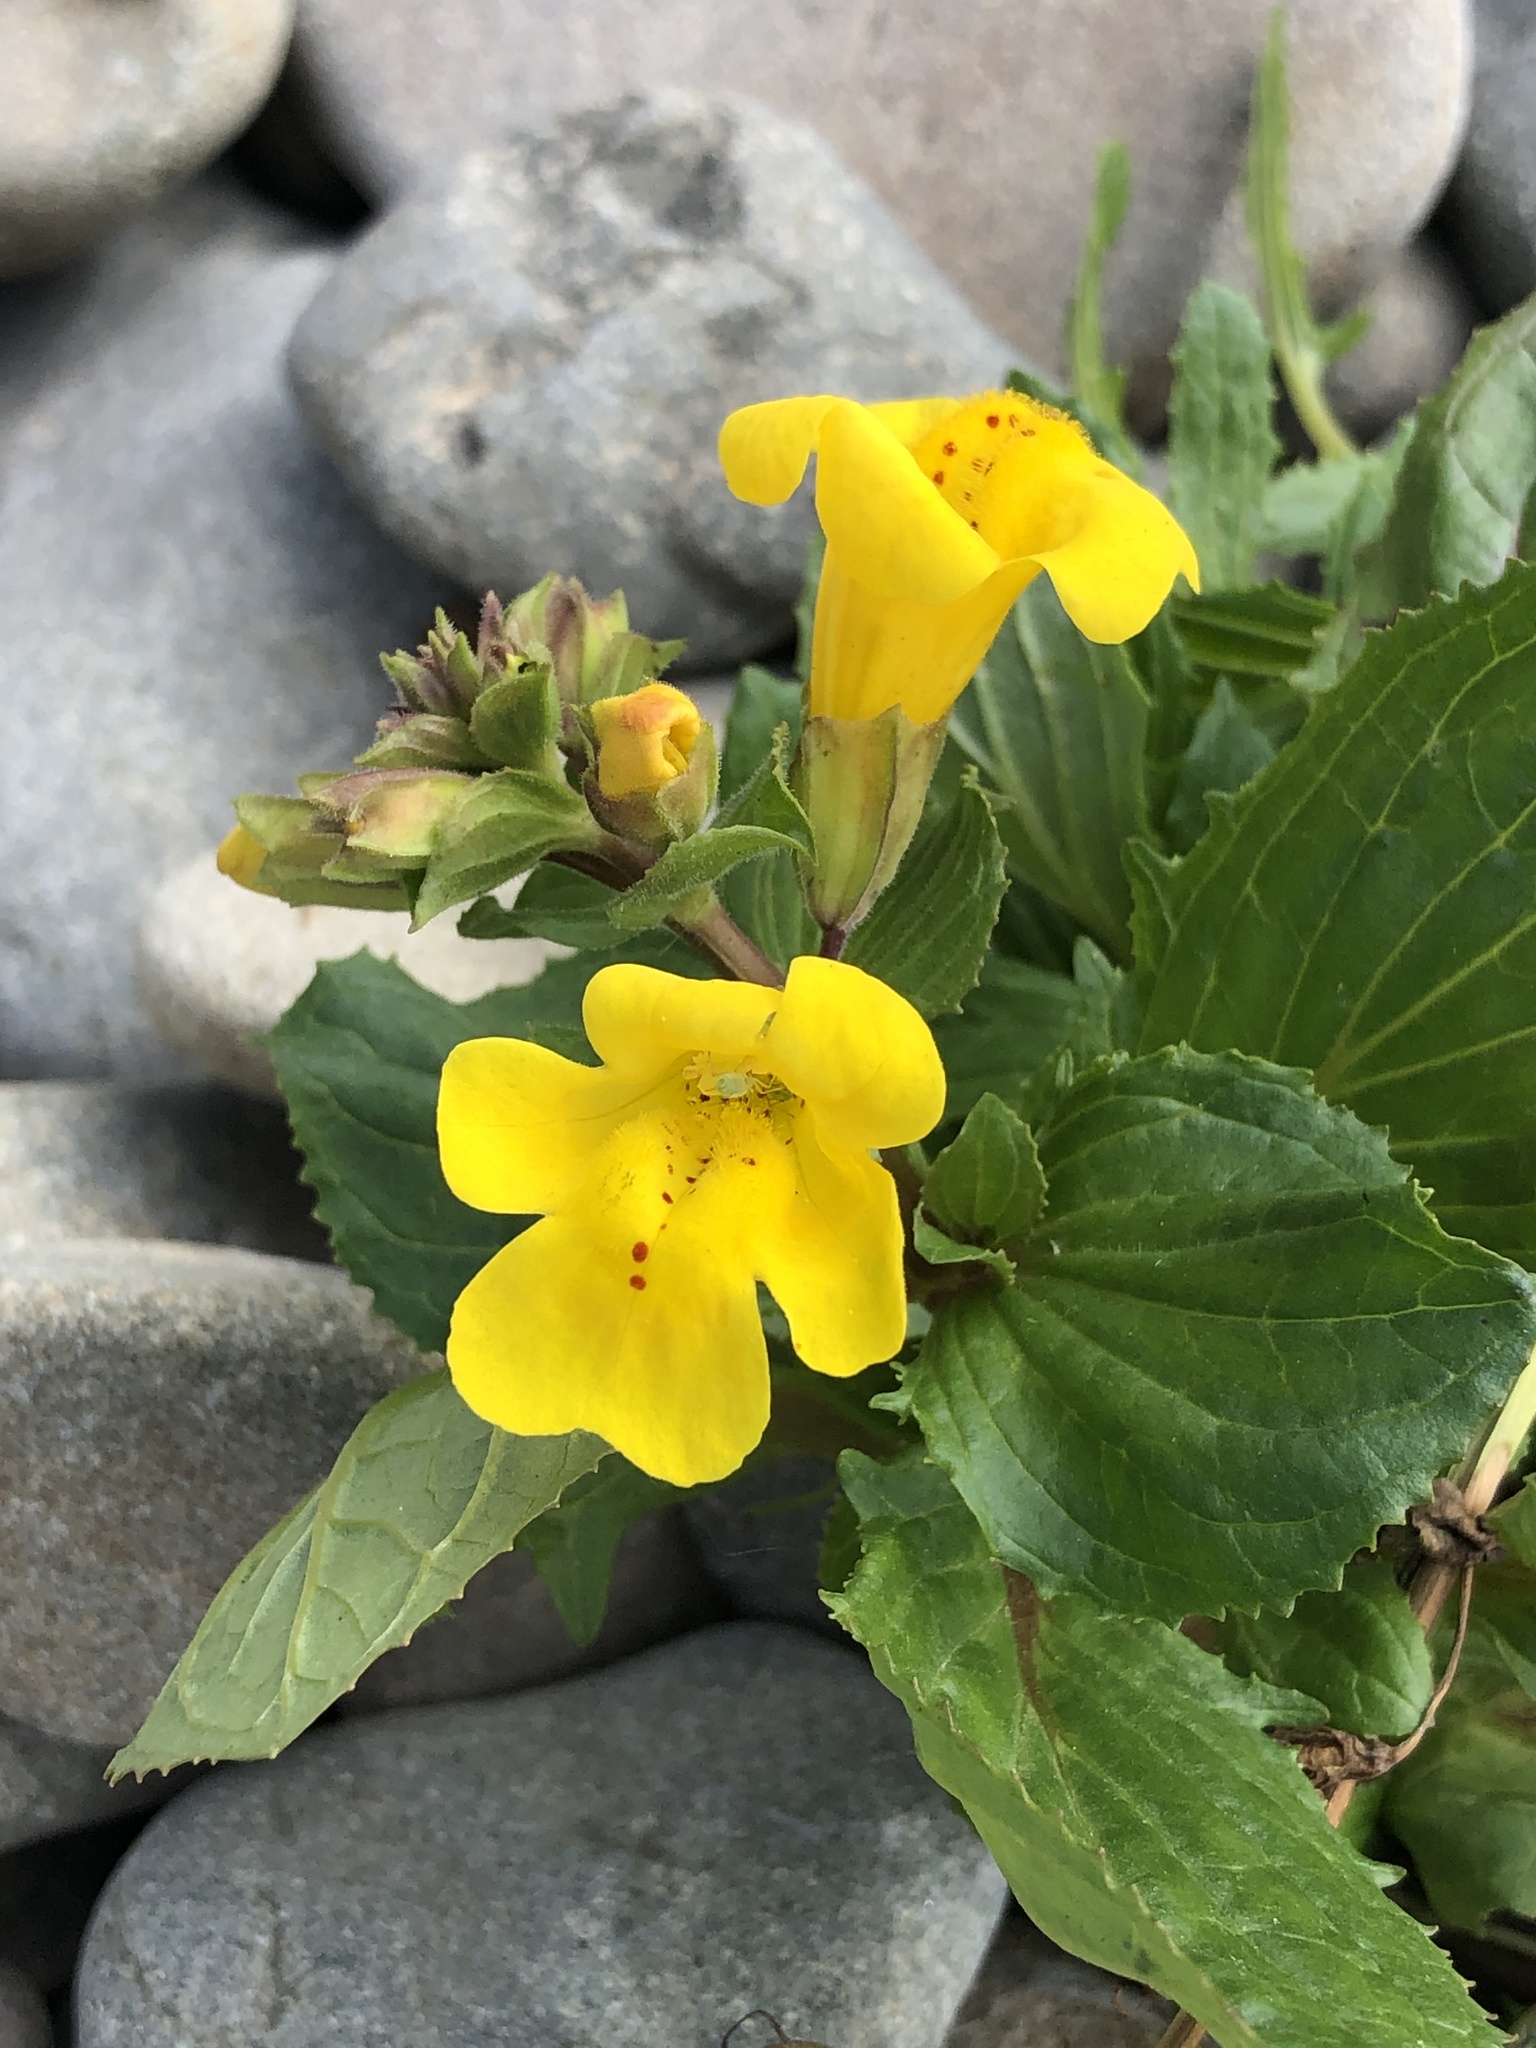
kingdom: Plantae
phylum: Tracheophyta
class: Magnoliopsida
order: Lamiales
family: Phrymaceae
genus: Erythranthe
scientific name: Erythranthe guttata
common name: Monkeyflower
